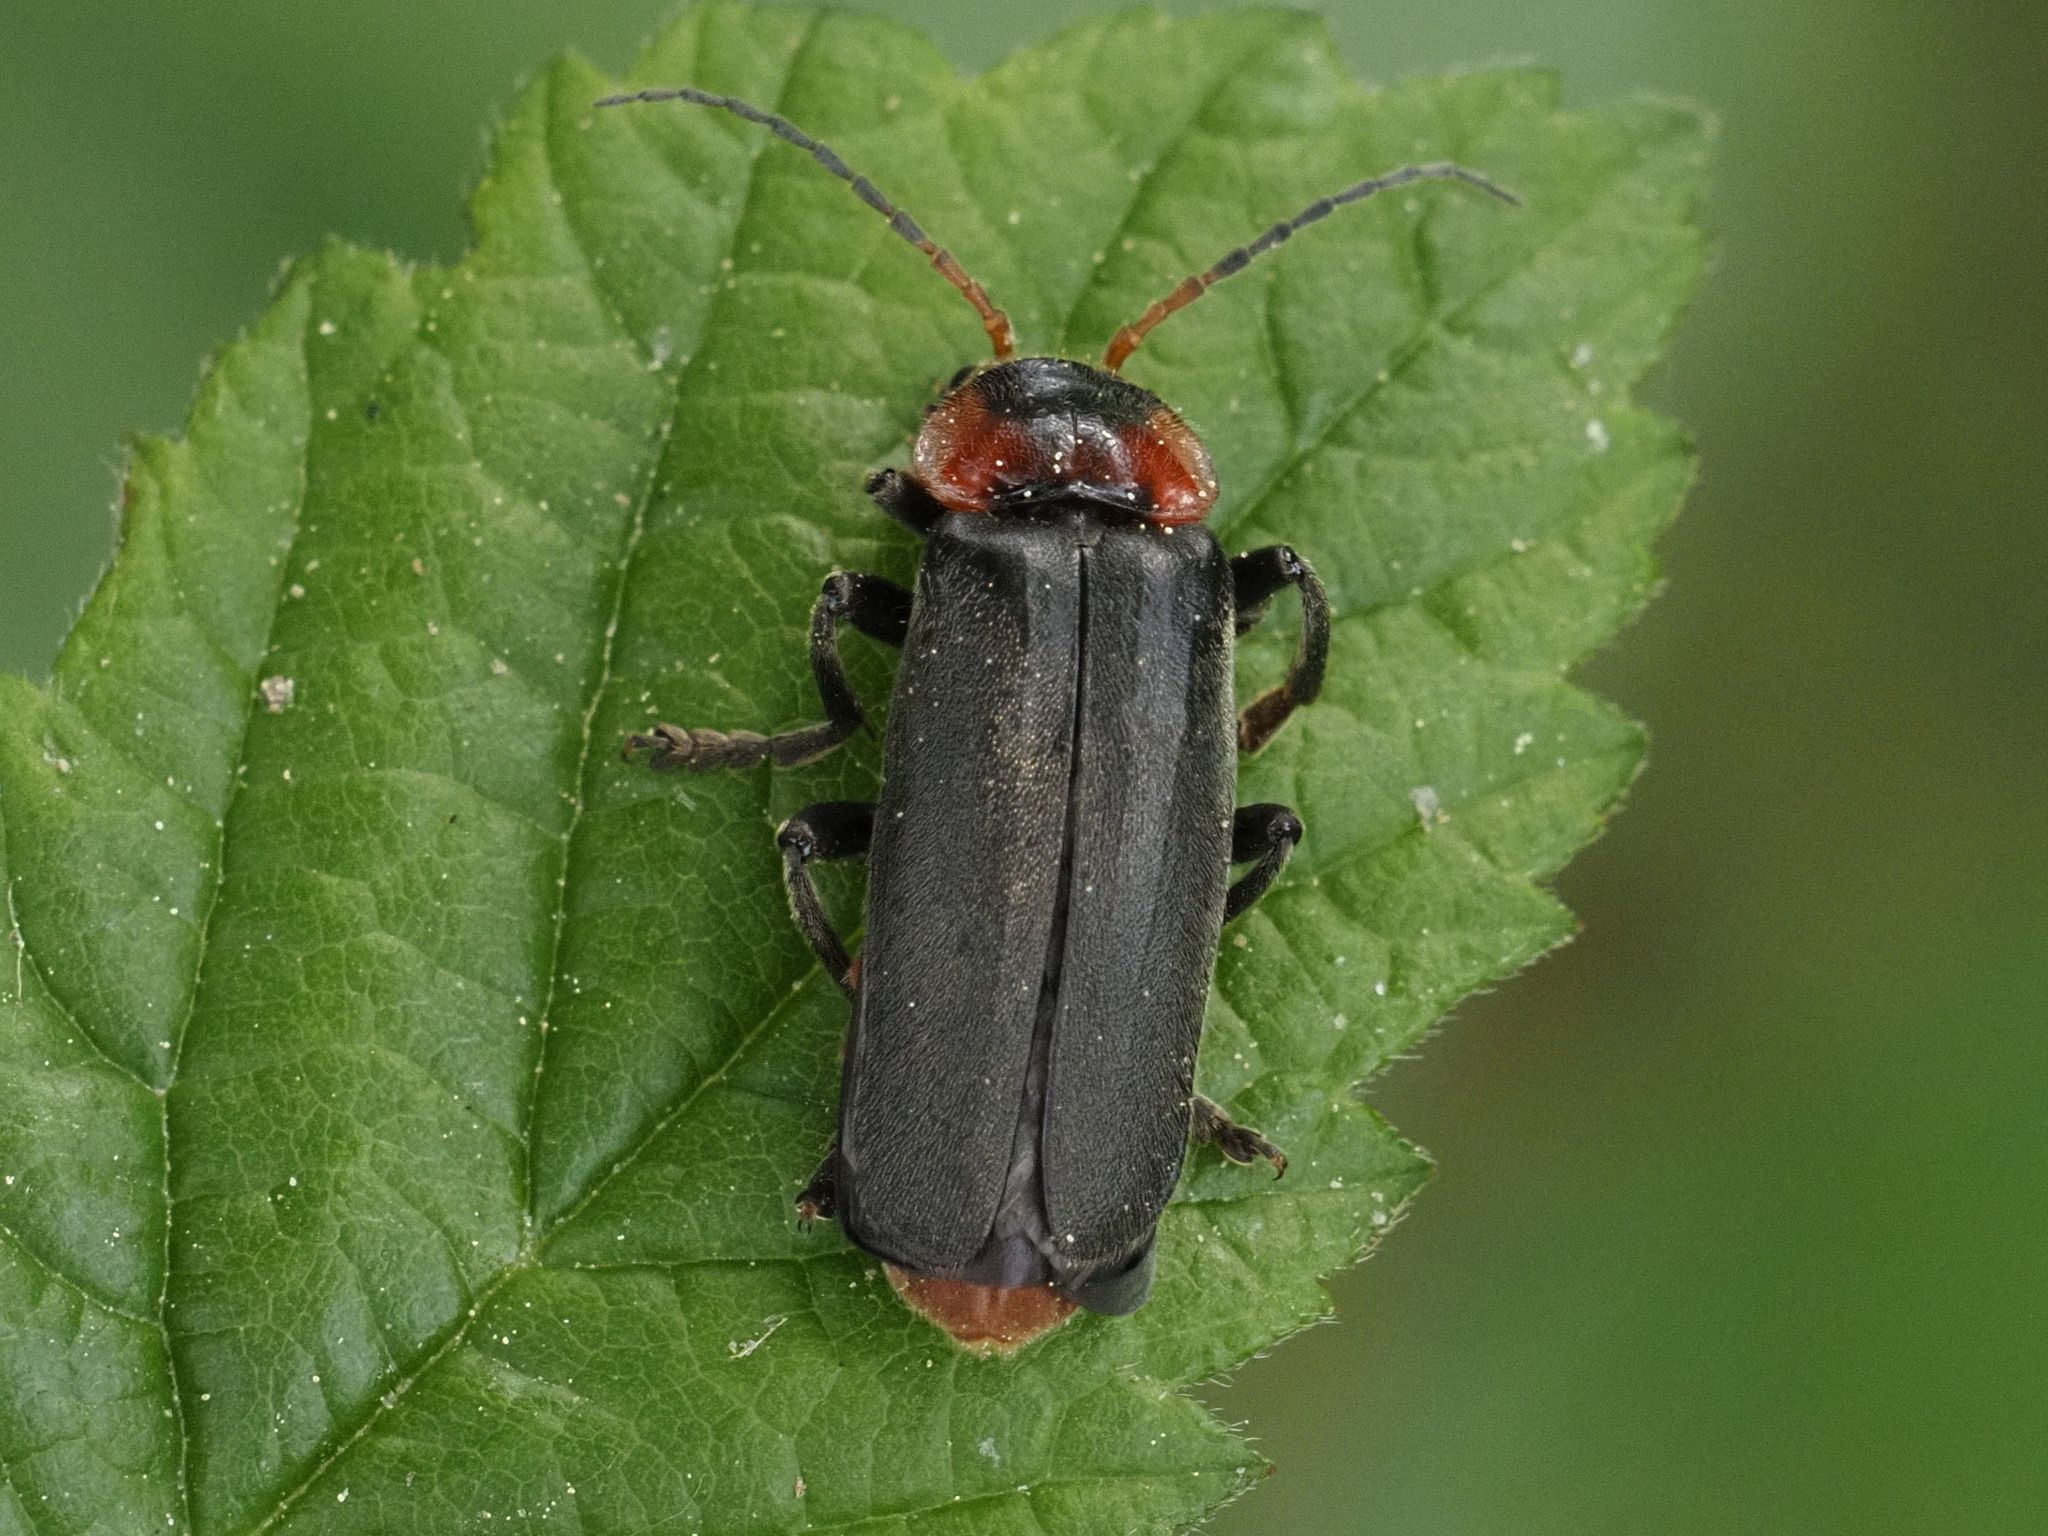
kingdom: Animalia
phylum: Arthropoda
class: Insecta
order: Coleoptera
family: Cantharidae
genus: Cantharis
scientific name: Cantharis fusca
